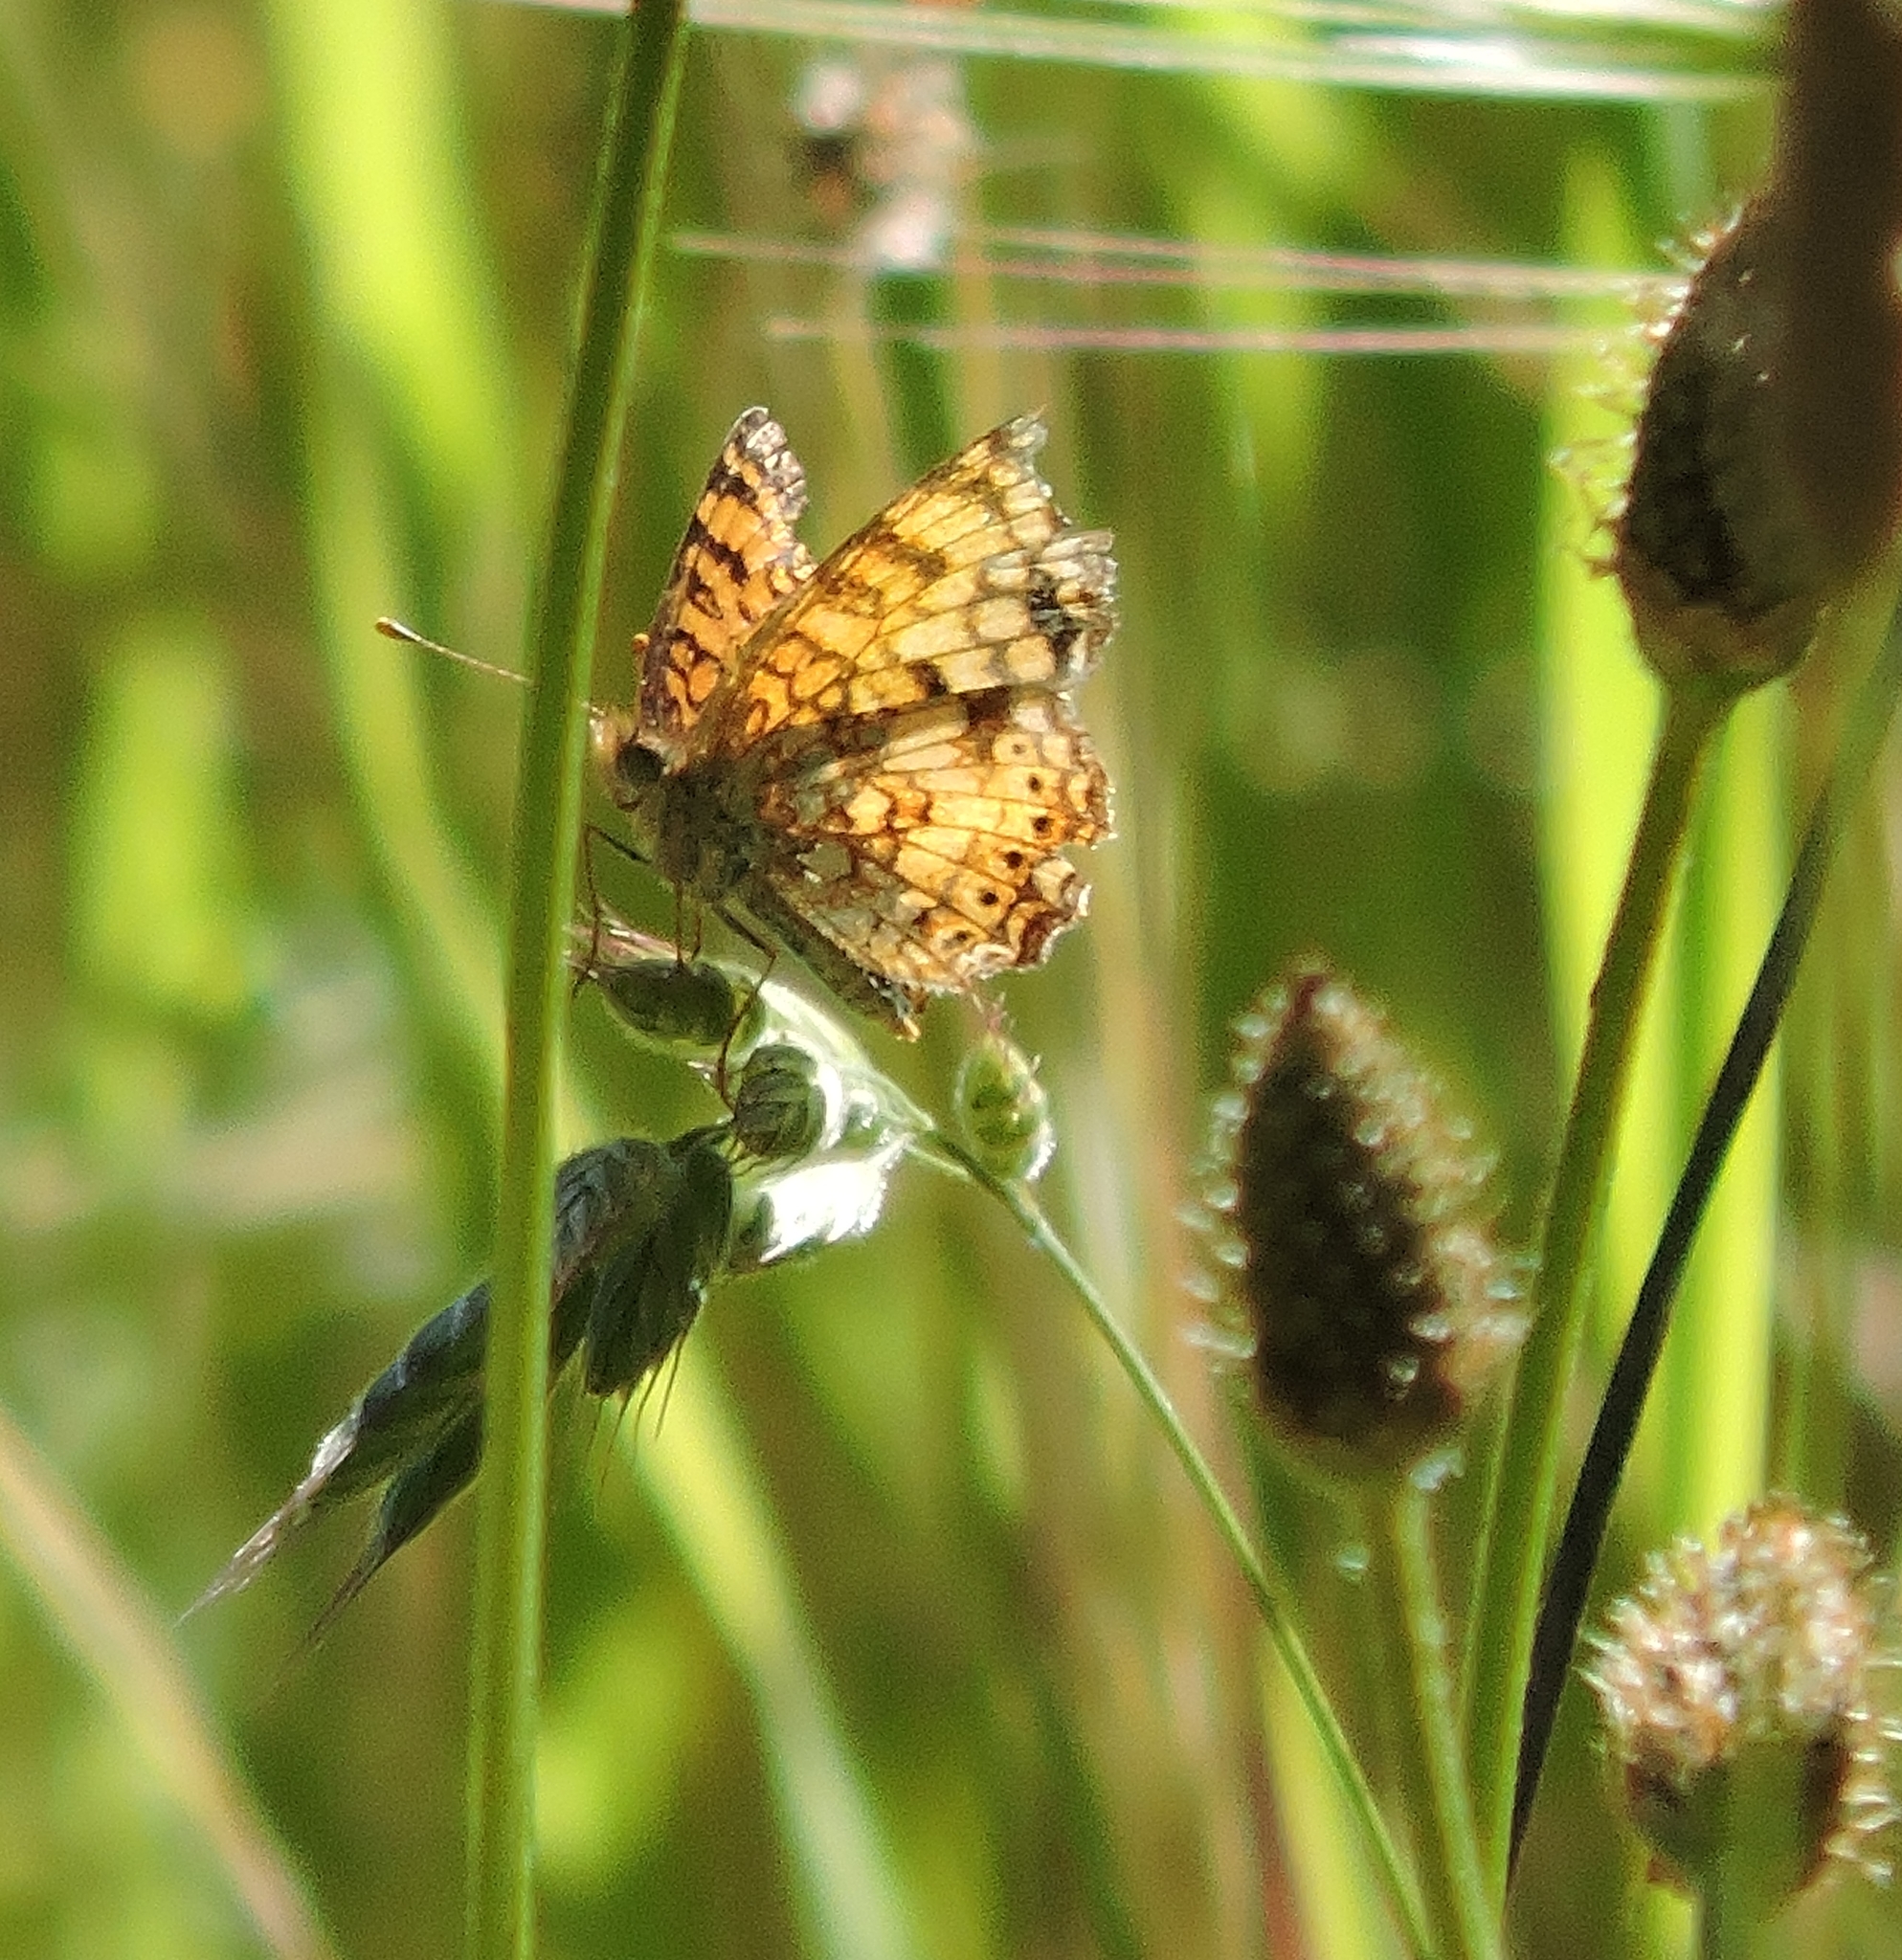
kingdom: Animalia
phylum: Arthropoda
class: Insecta
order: Lepidoptera
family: Nymphalidae
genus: Eresia
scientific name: Eresia aveyrona
